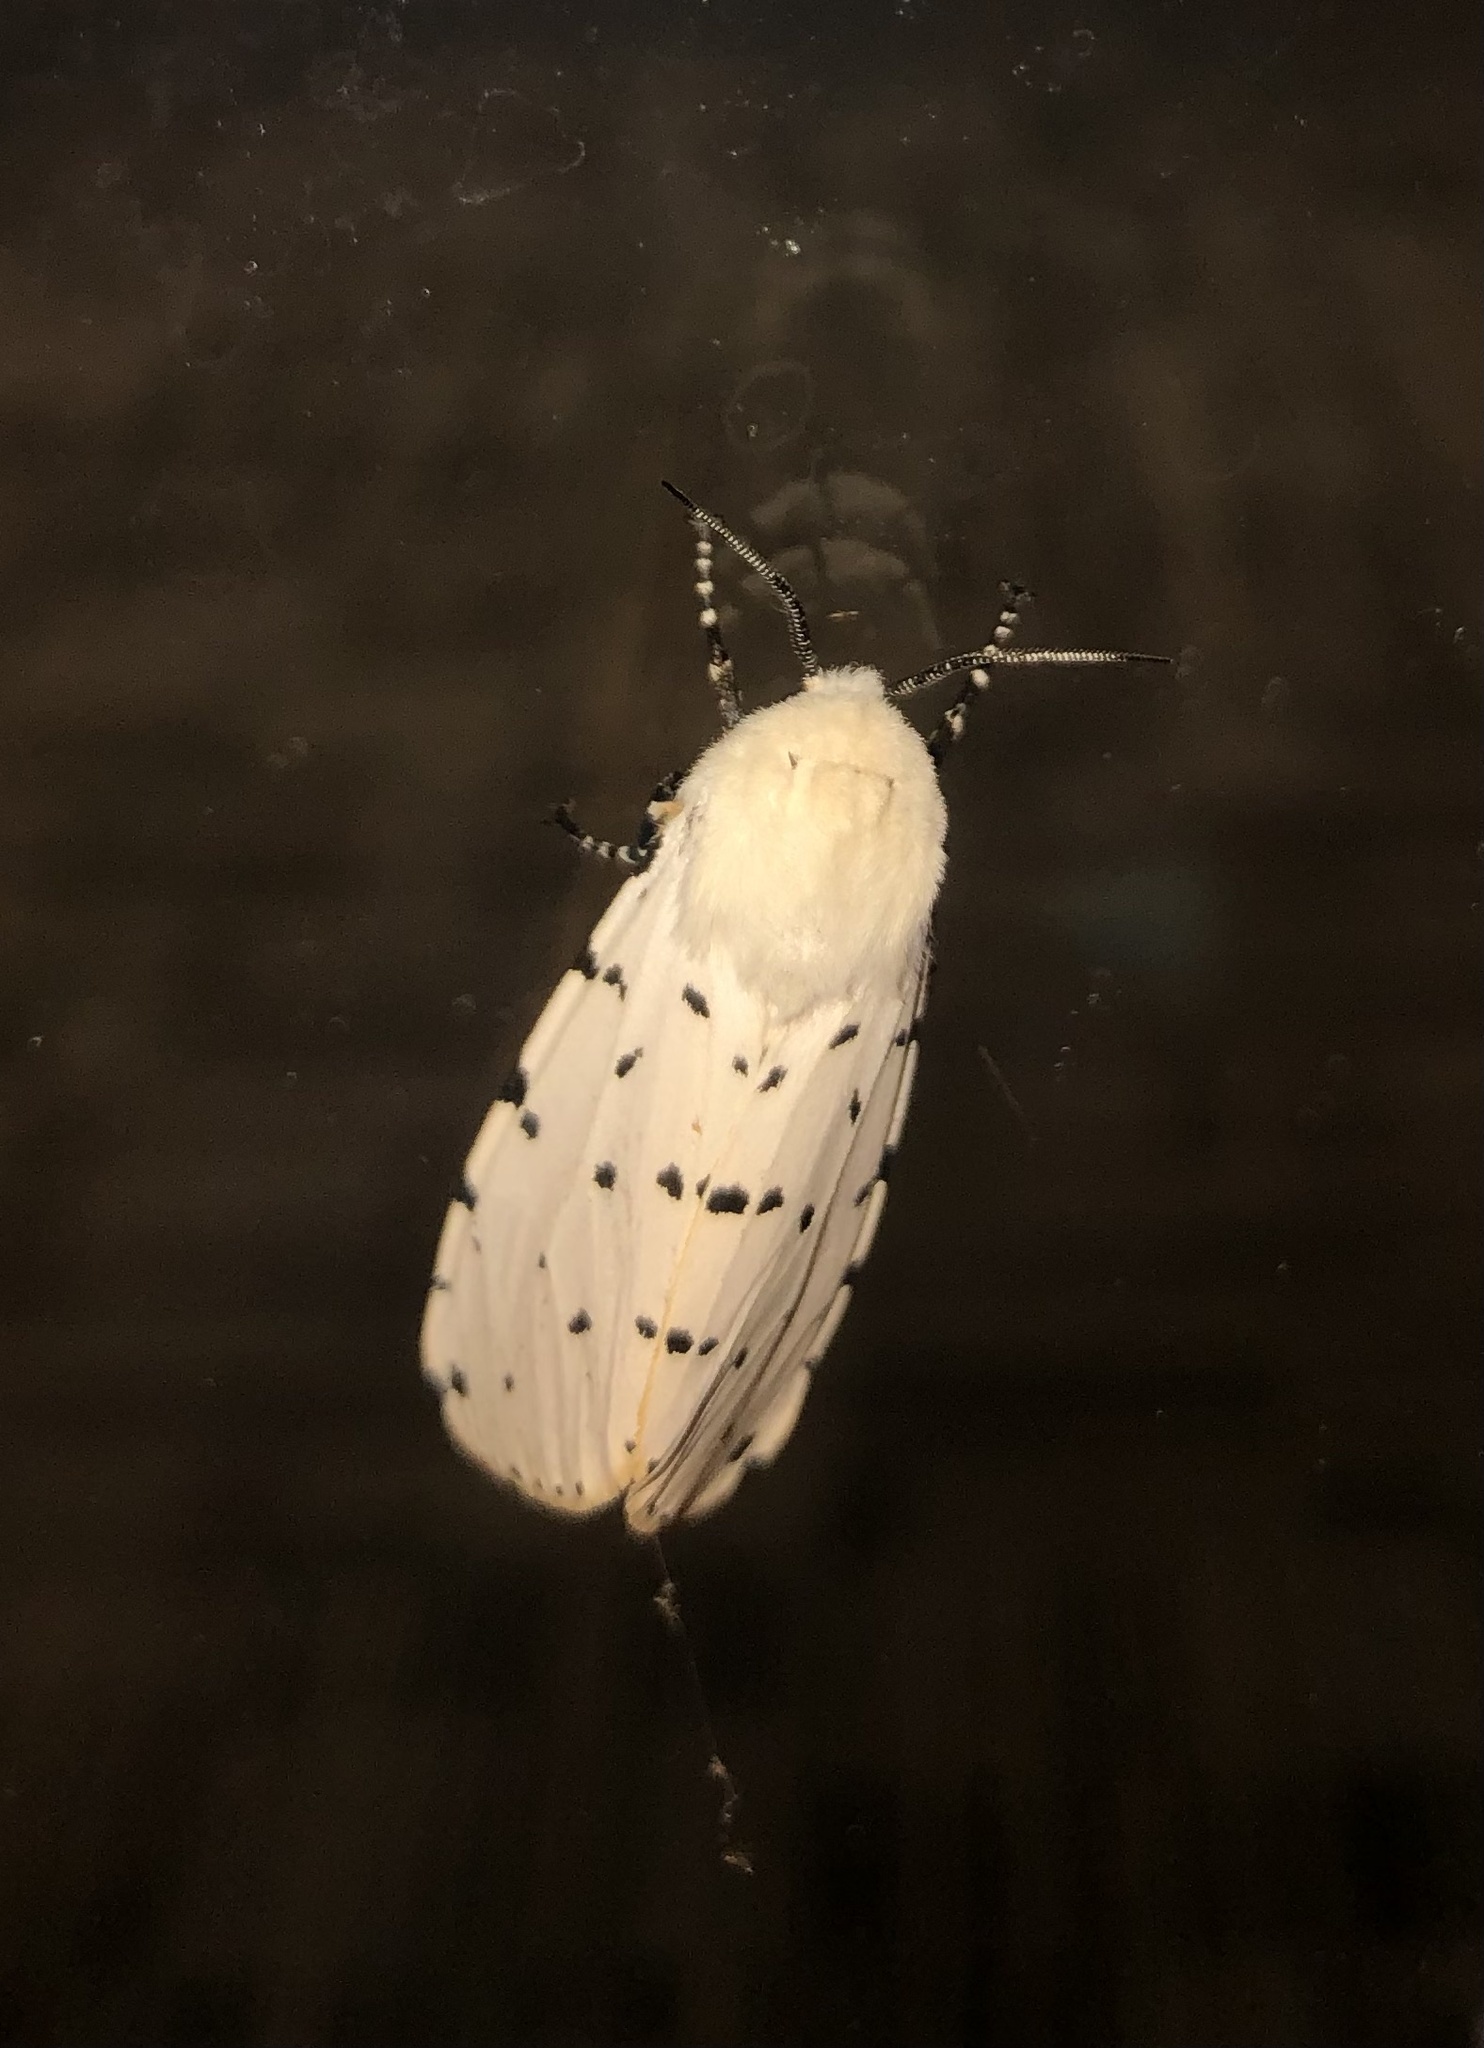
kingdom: Animalia
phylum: Arthropoda
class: Insecta
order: Lepidoptera
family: Erebidae
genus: Estigmene
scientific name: Estigmene acrea
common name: Salt marsh moth
